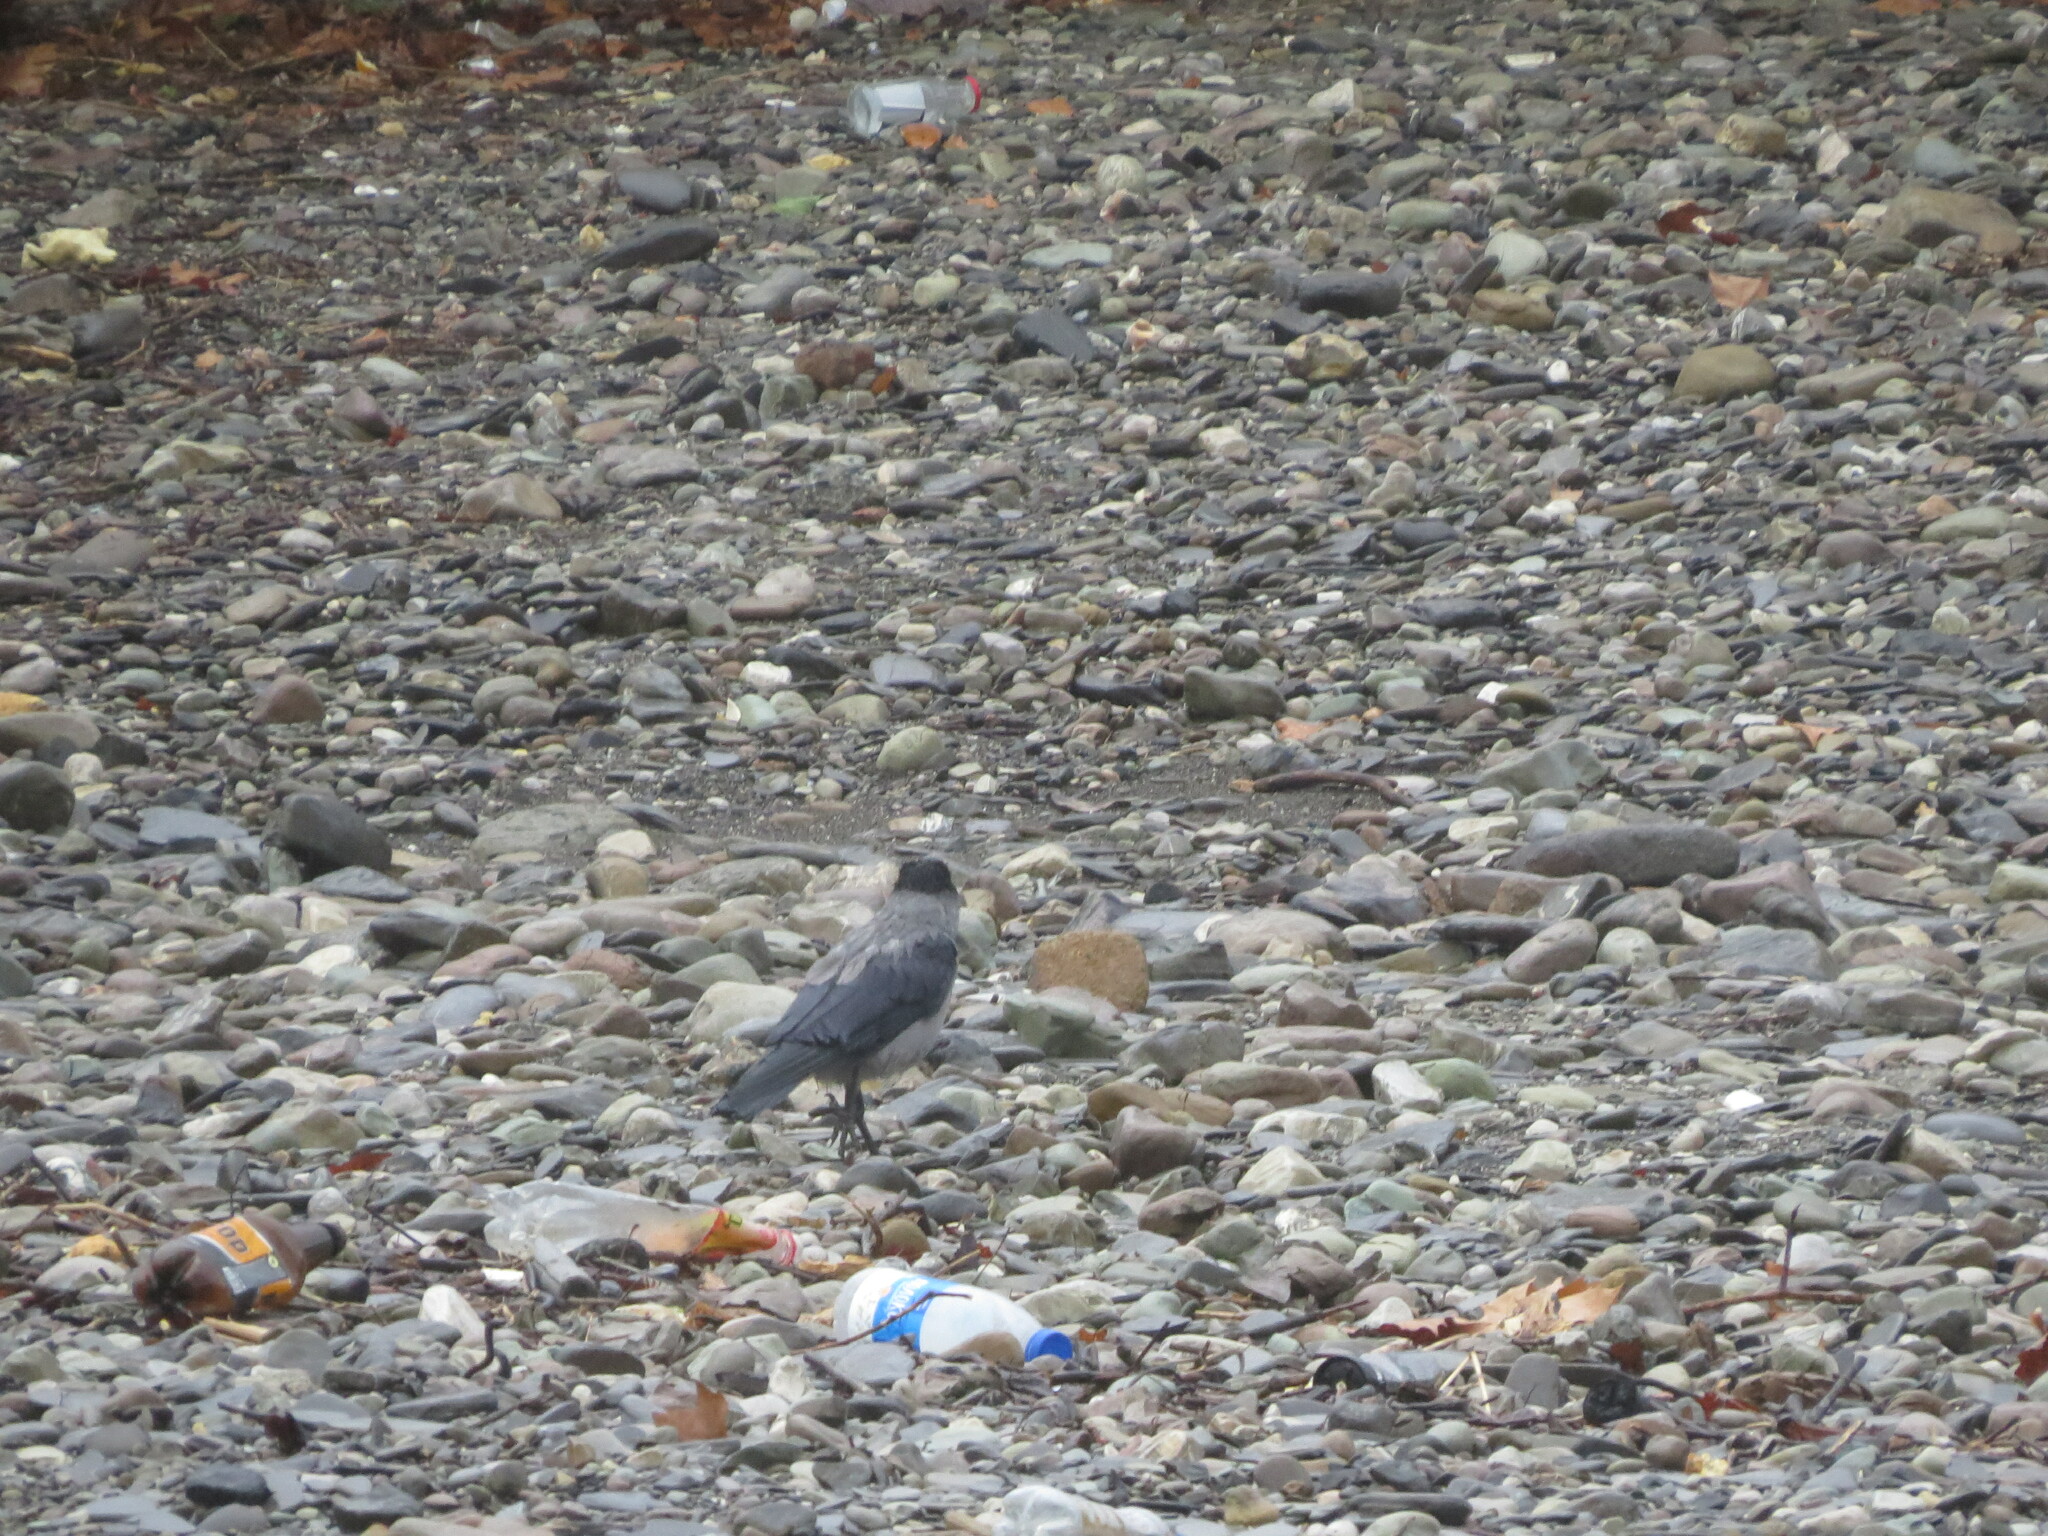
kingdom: Animalia
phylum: Chordata
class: Aves
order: Passeriformes
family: Corvidae
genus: Corvus
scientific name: Corvus cornix
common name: Hooded crow
